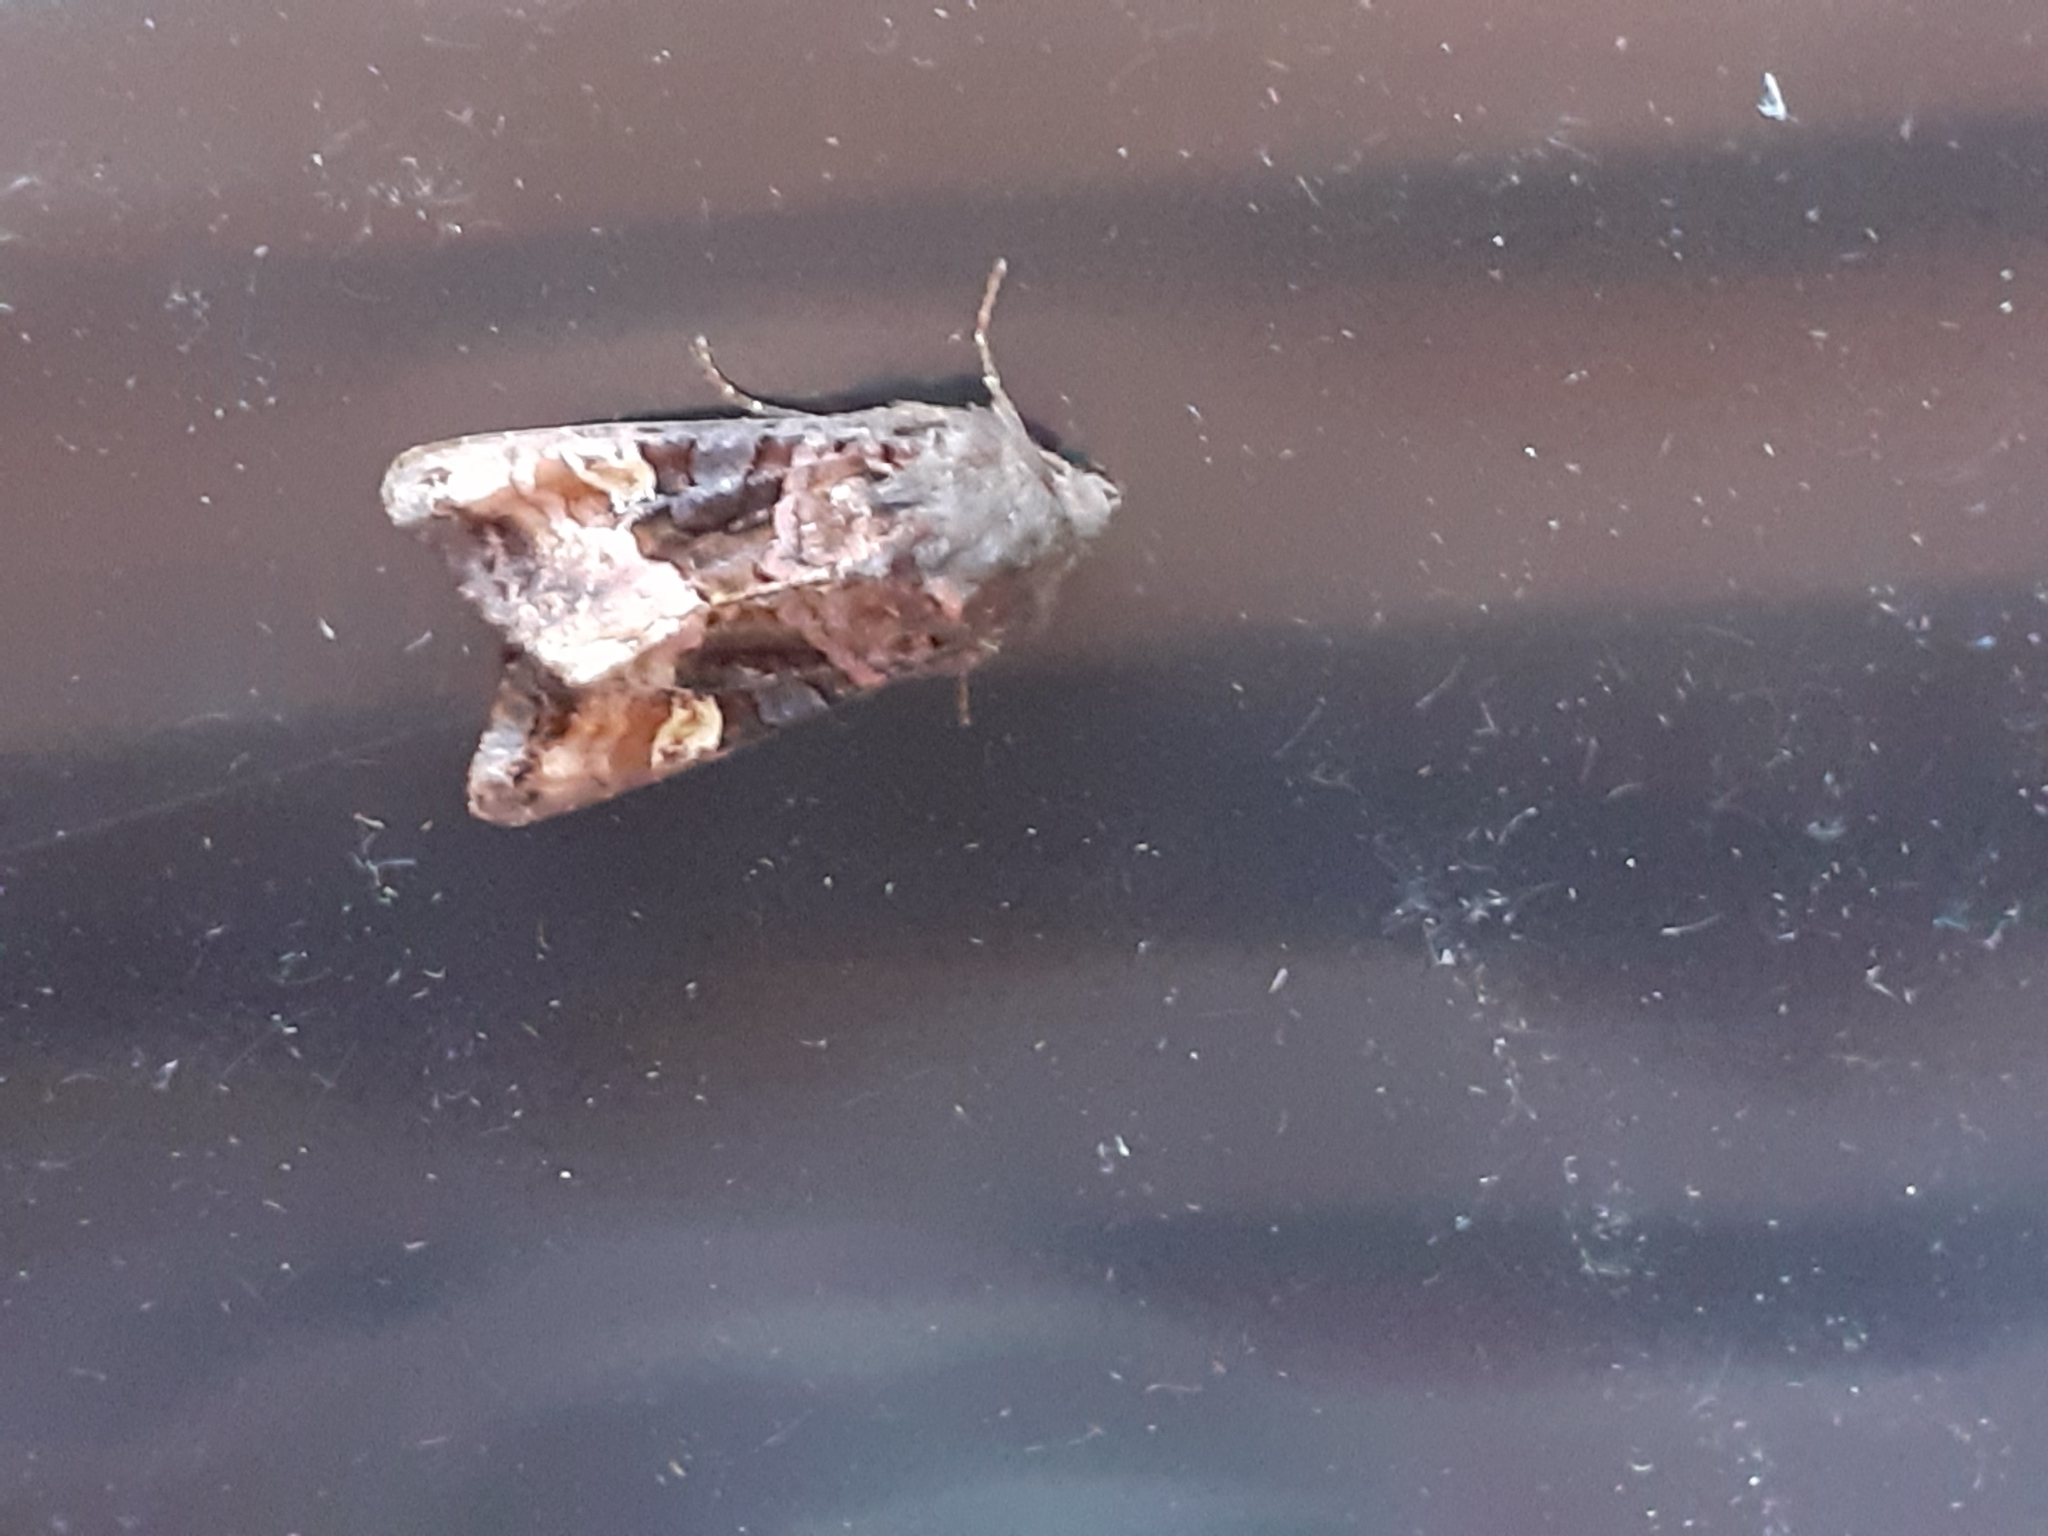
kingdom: Animalia
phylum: Arthropoda
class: Insecta
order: Lepidoptera
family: Noctuidae
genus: Euplexia
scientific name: Euplexia lucipara
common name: Small angle shades
